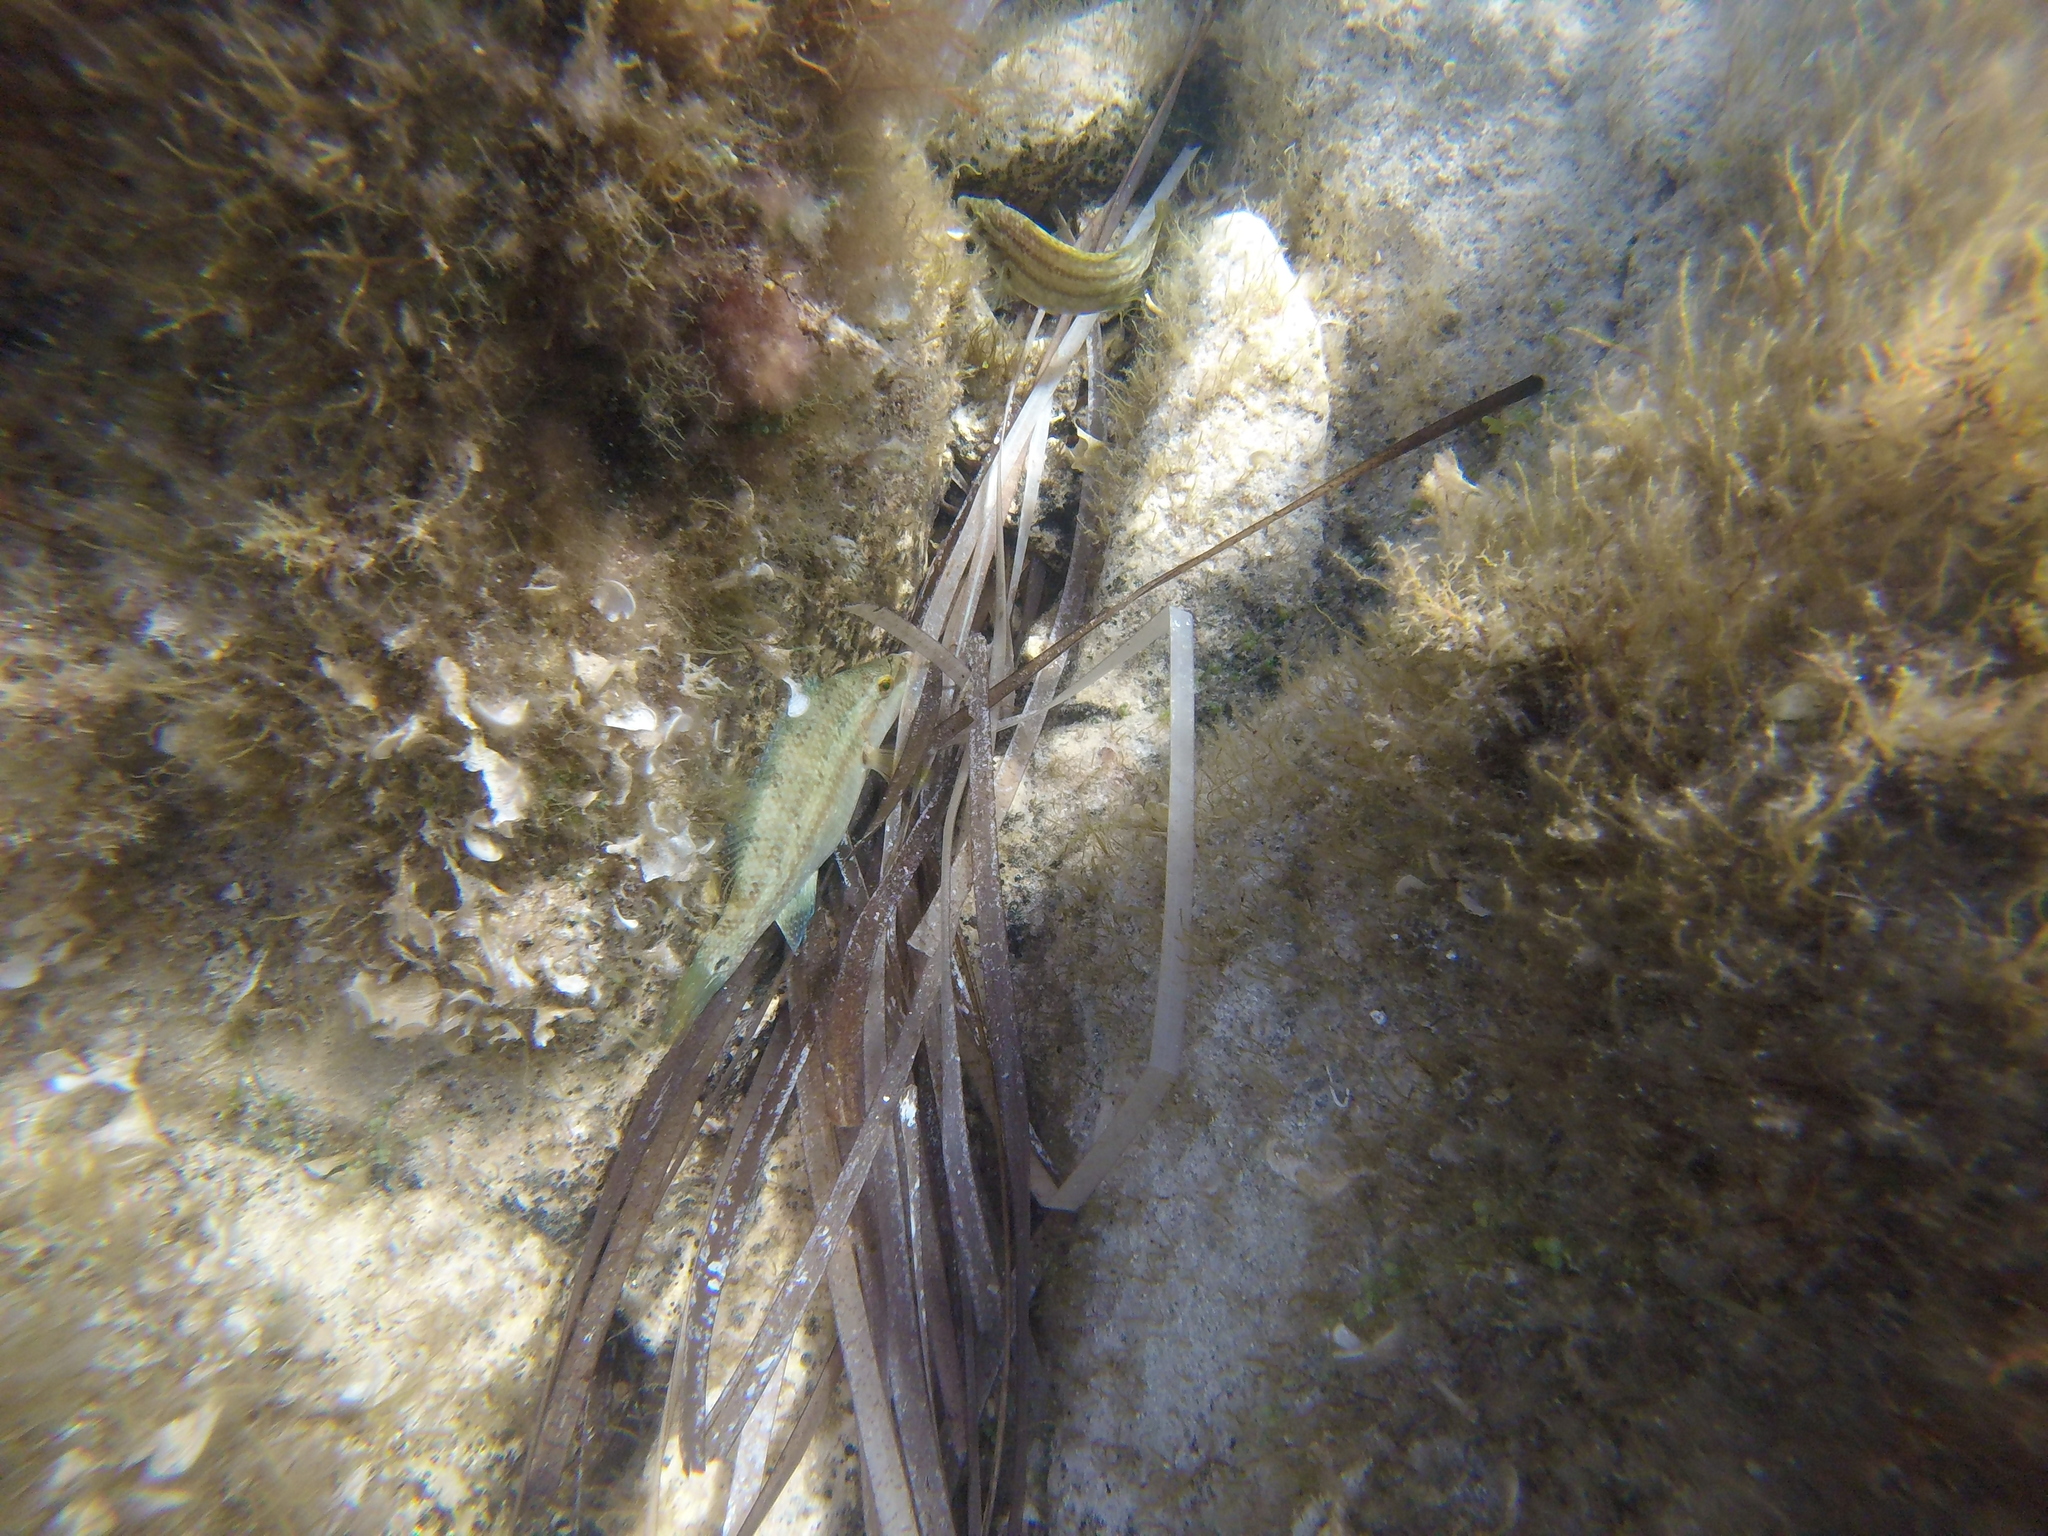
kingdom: Animalia
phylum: Chordata
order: Perciformes
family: Labridae
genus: Symphodus
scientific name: Symphodus tinca
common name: Peacock wrasse
